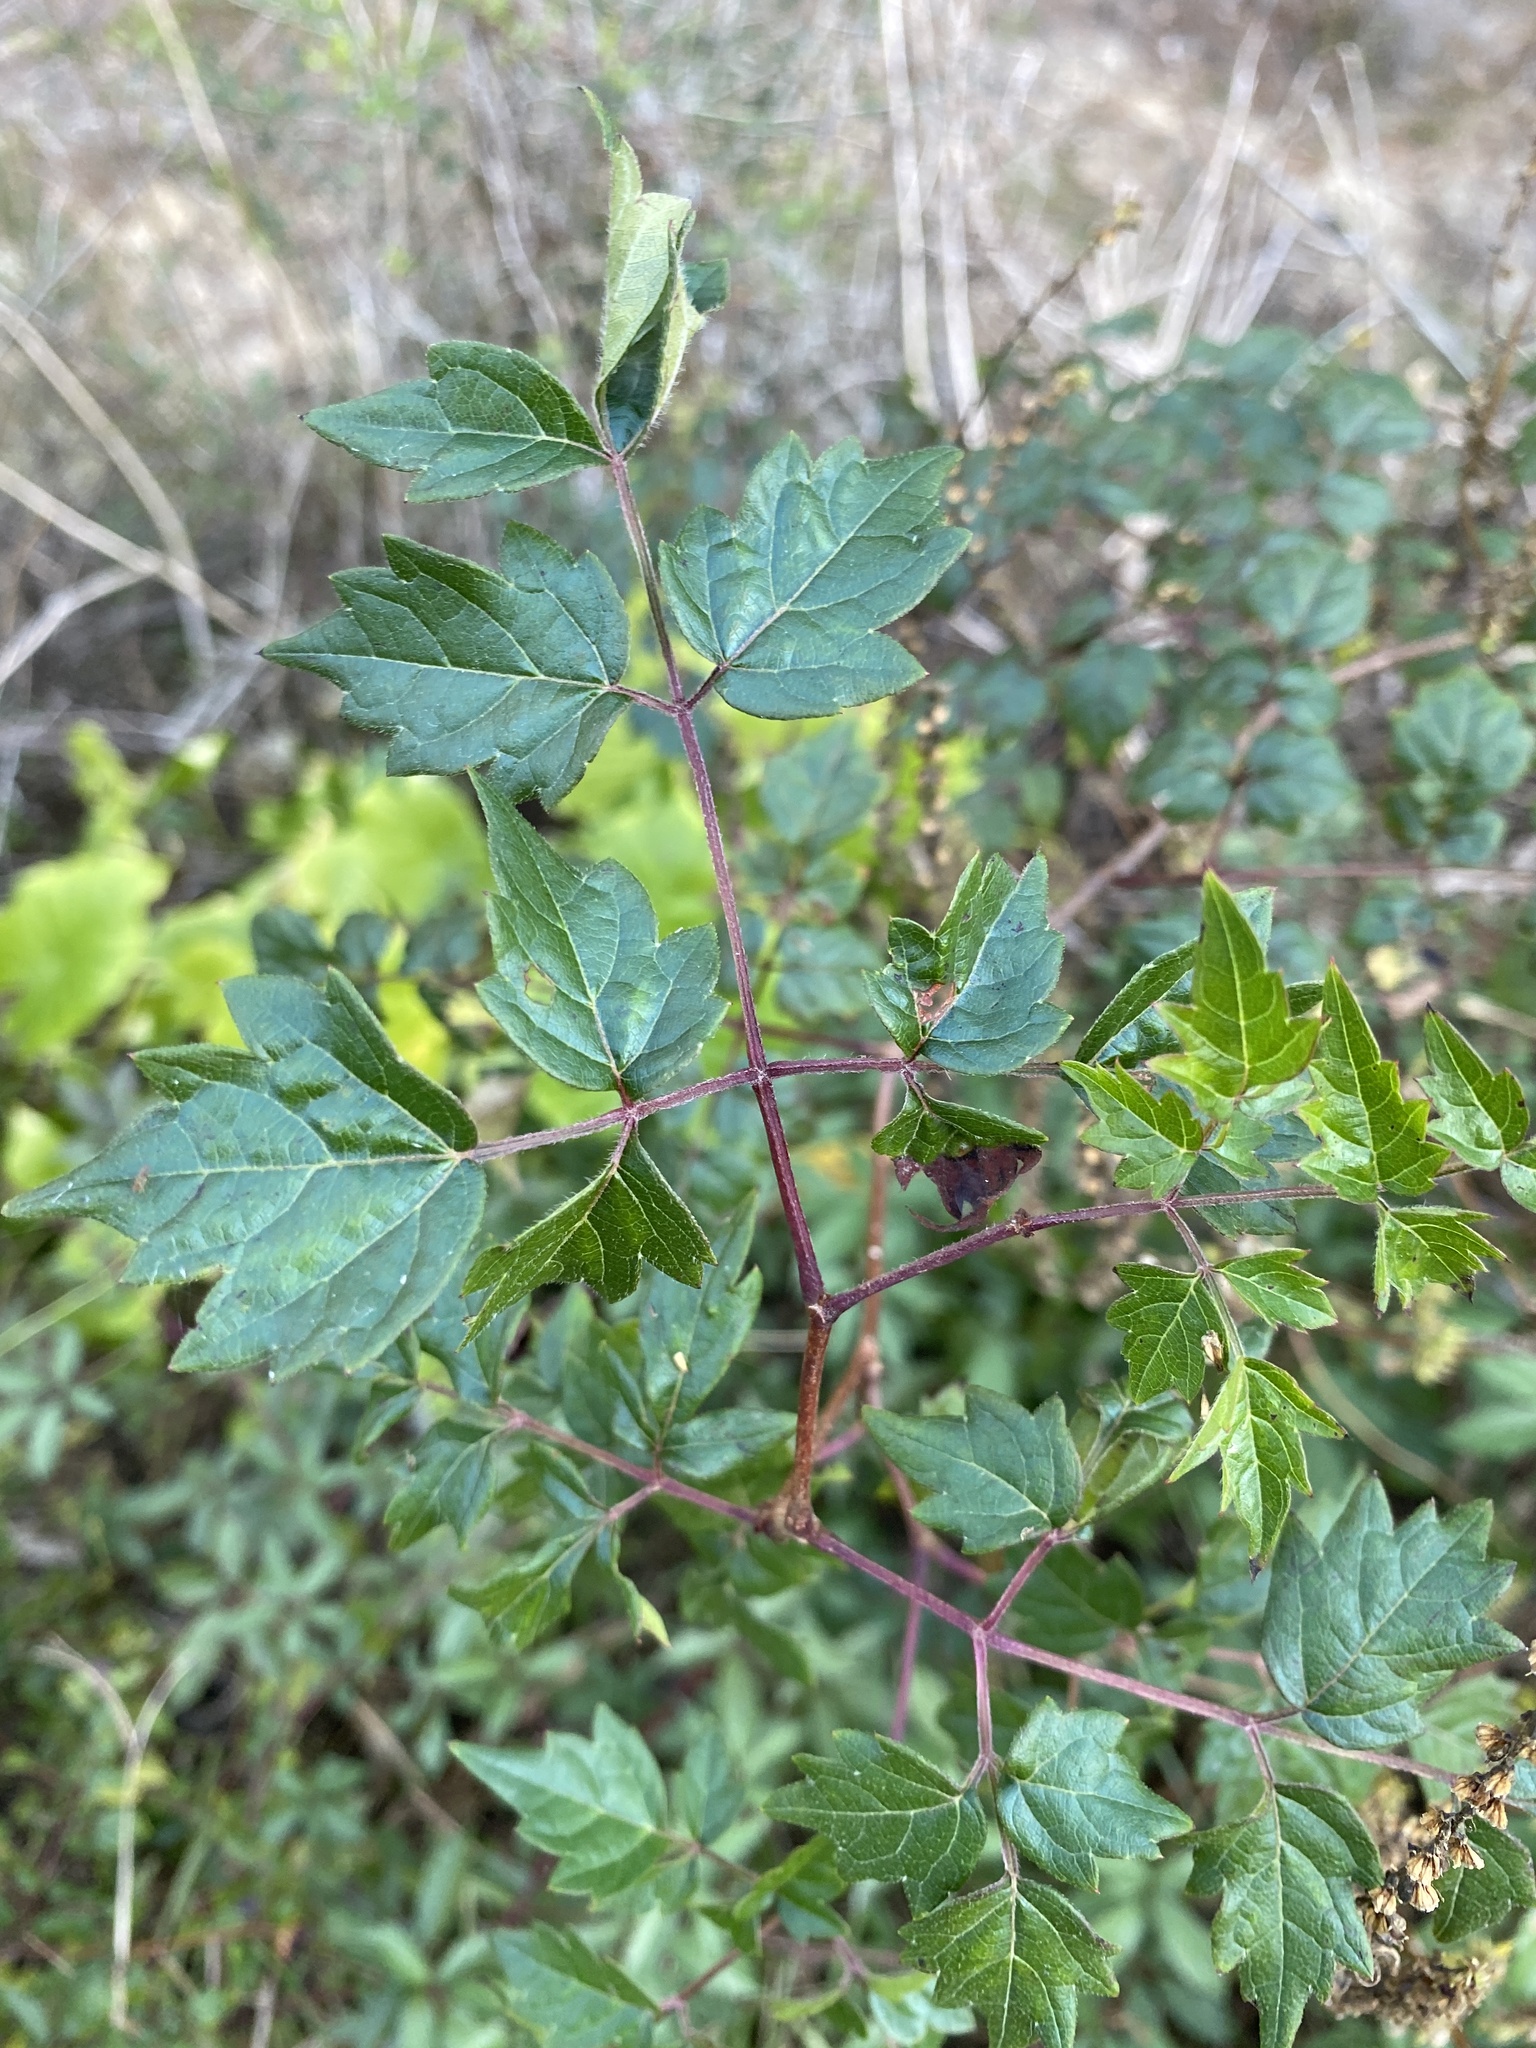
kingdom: Plantae
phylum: Tracheophyta
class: Magnoliopsida
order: Vitales
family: Vitaceae
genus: Nekemias
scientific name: Nekemias arborea
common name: Peppervine
